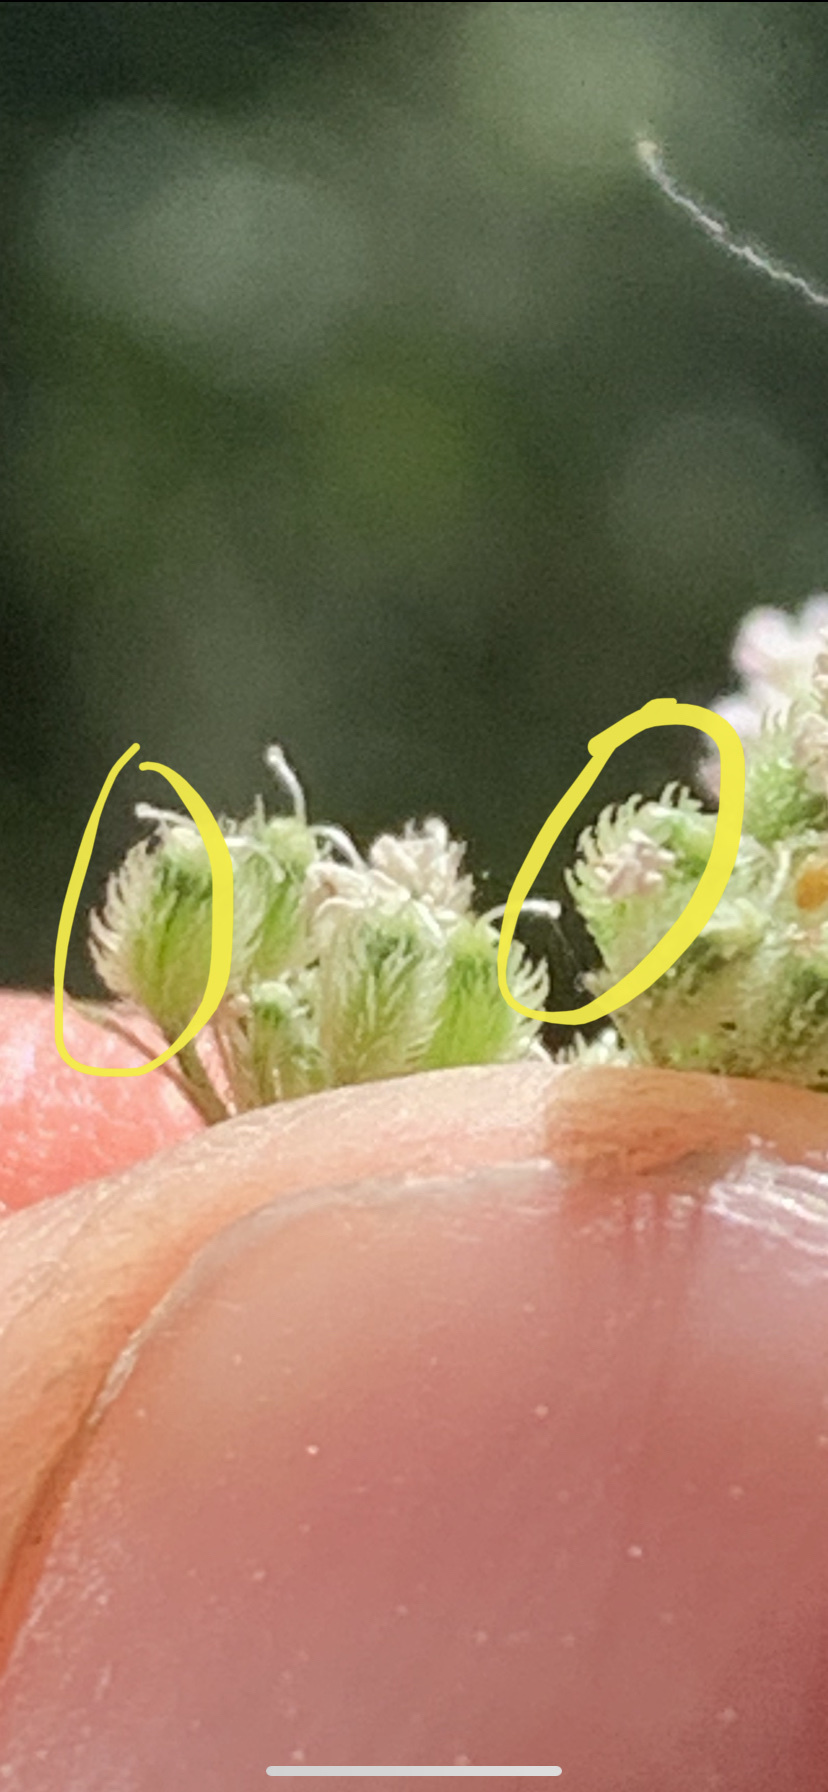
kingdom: Plantae
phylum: Tracheophyta
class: Magnoliopsida
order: Apiales
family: Apiaceae
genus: Torilis
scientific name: Torilis japonica
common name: Upright hedge-parsley
